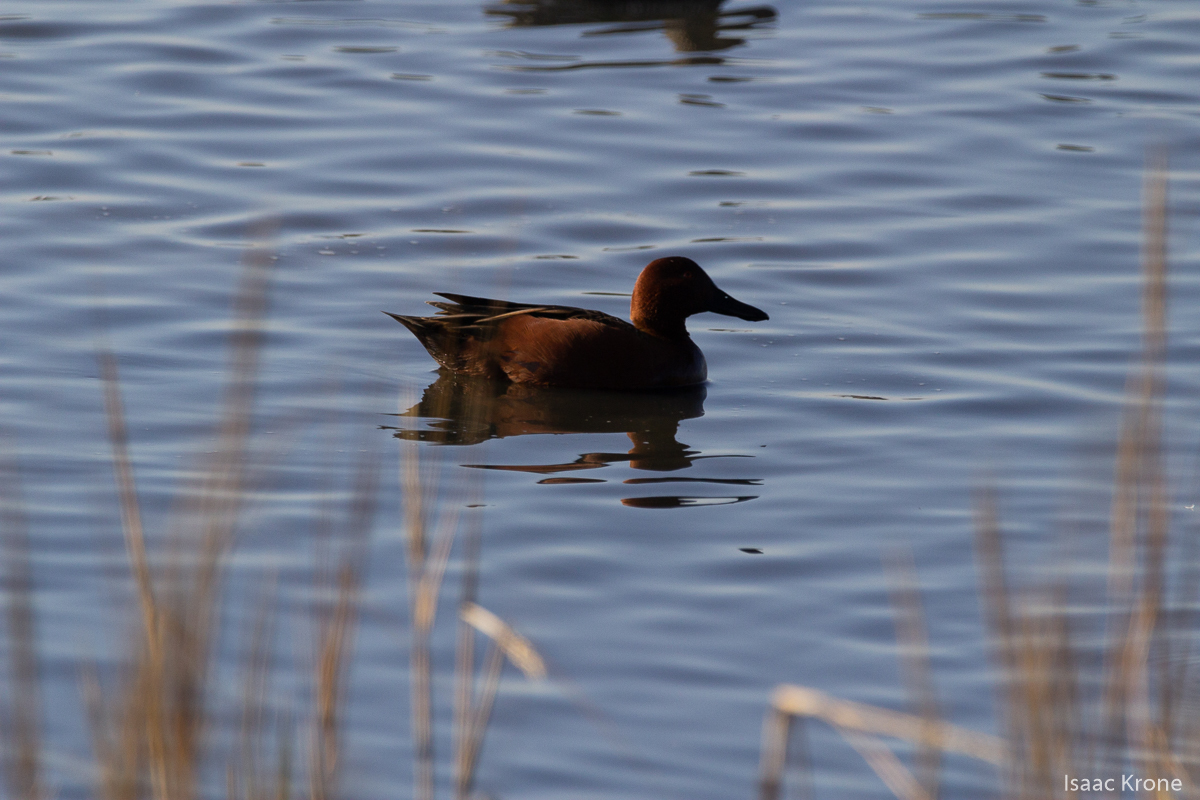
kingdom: Animalia
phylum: Chordata
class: Aves
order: Anseriformes
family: Anatidae
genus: Spatula
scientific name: Spatula cyanoptera
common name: Cinnamon teal
